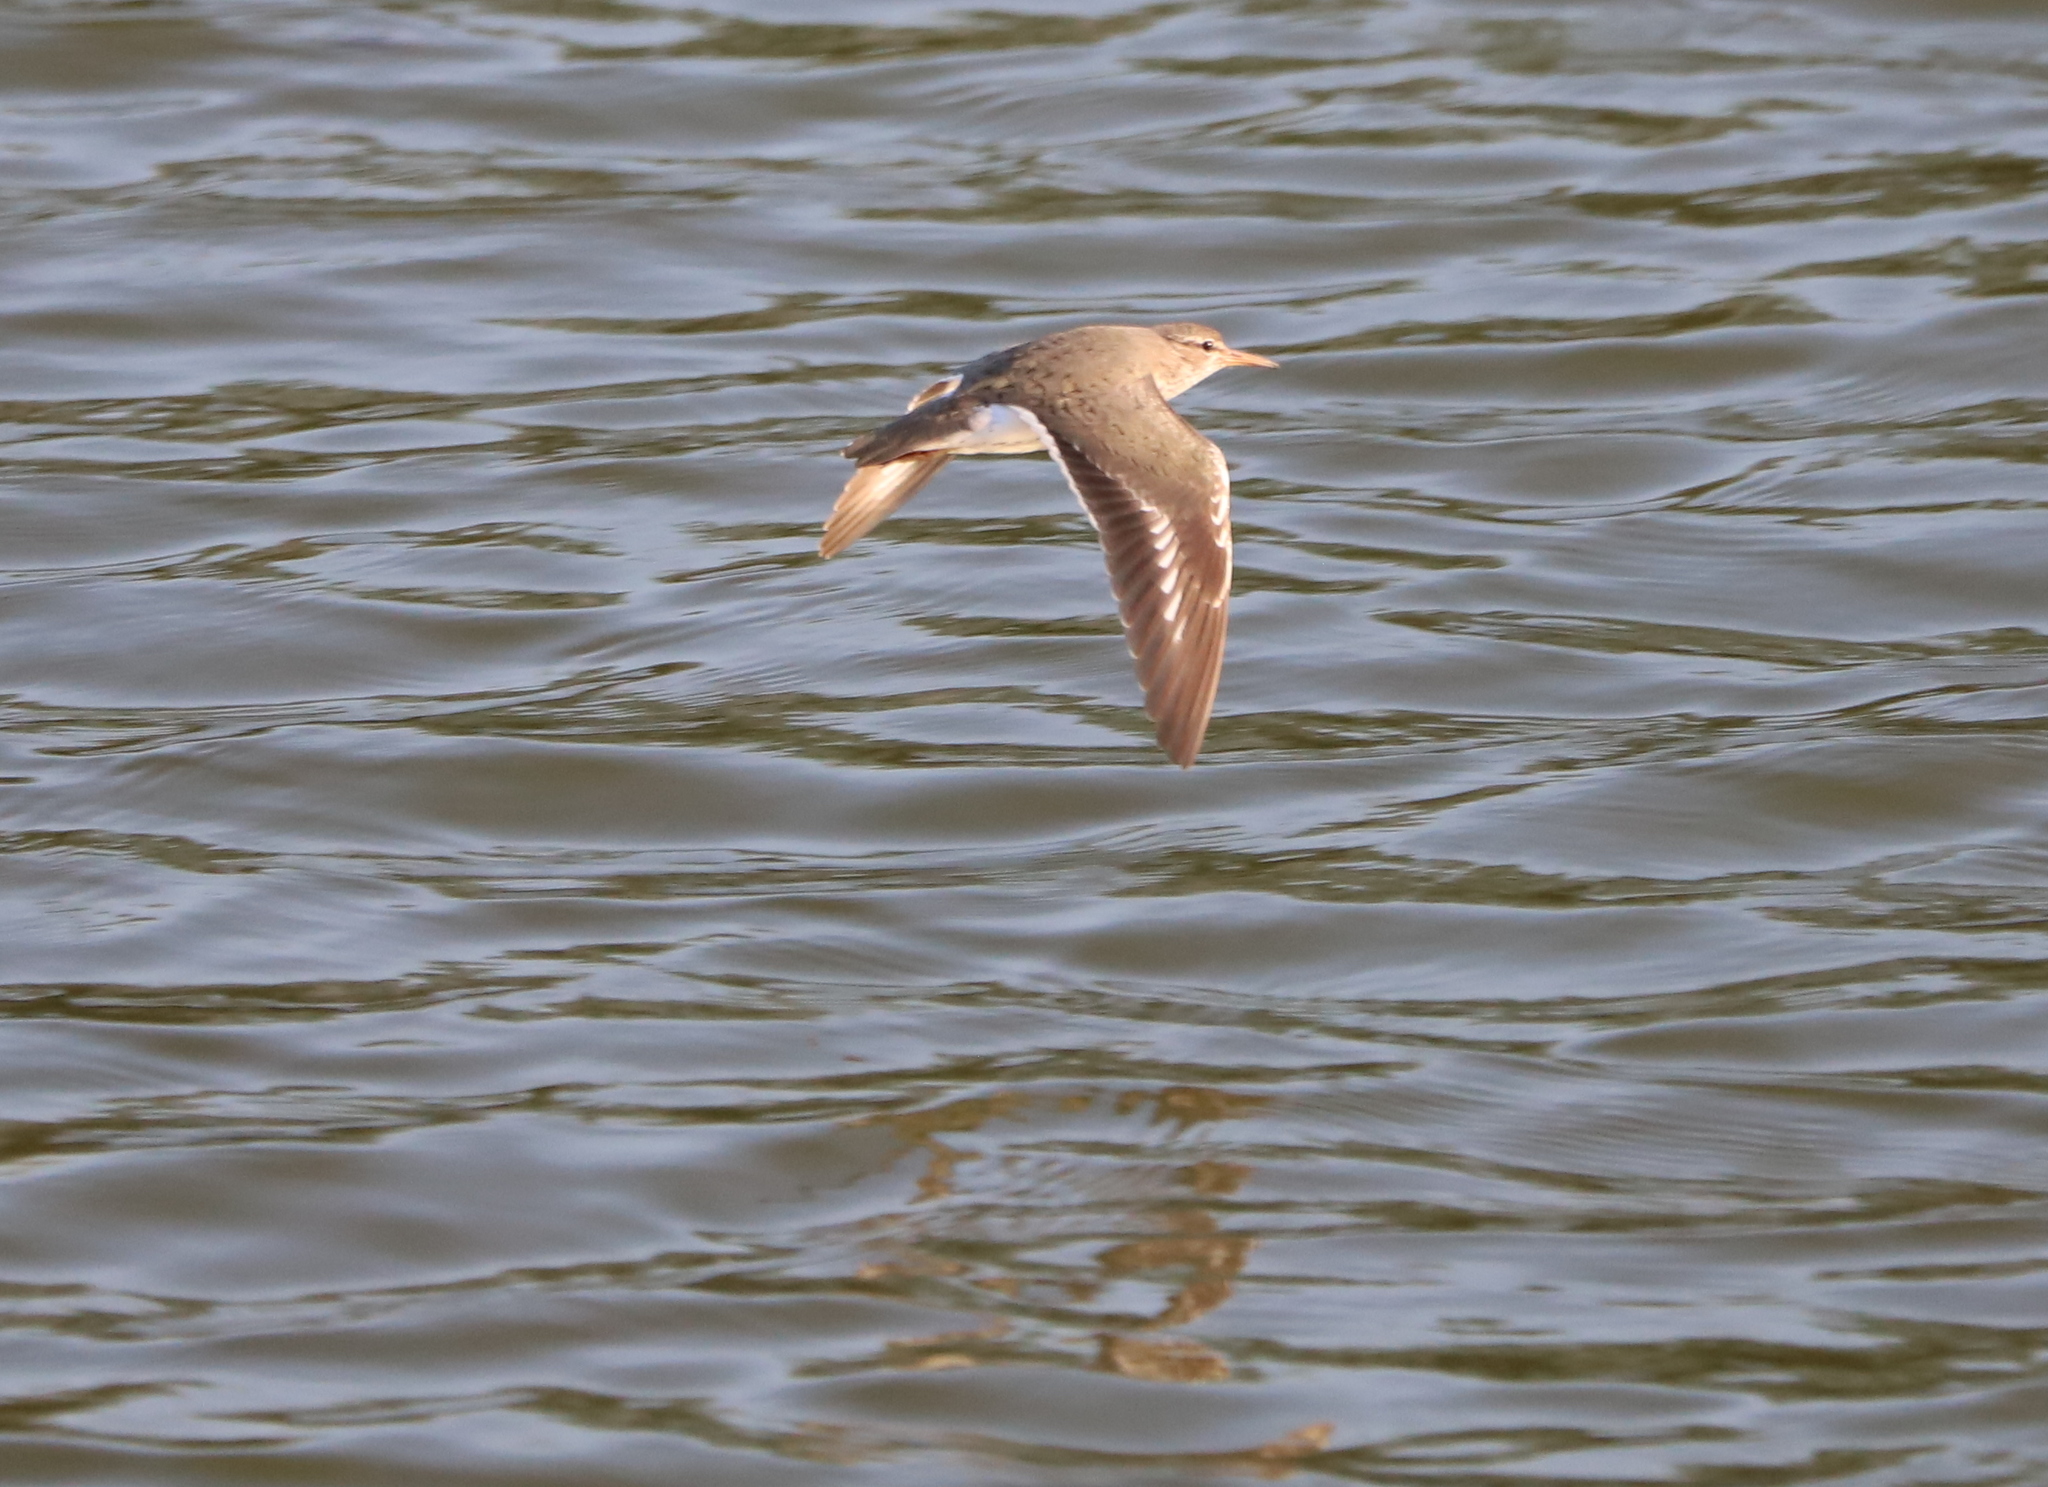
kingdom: Animalia
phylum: Chordata
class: Aves
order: Charadriiformes
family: Scolopacidae
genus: Actitis
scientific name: Actitis macularius
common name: Spotted sandpiper
